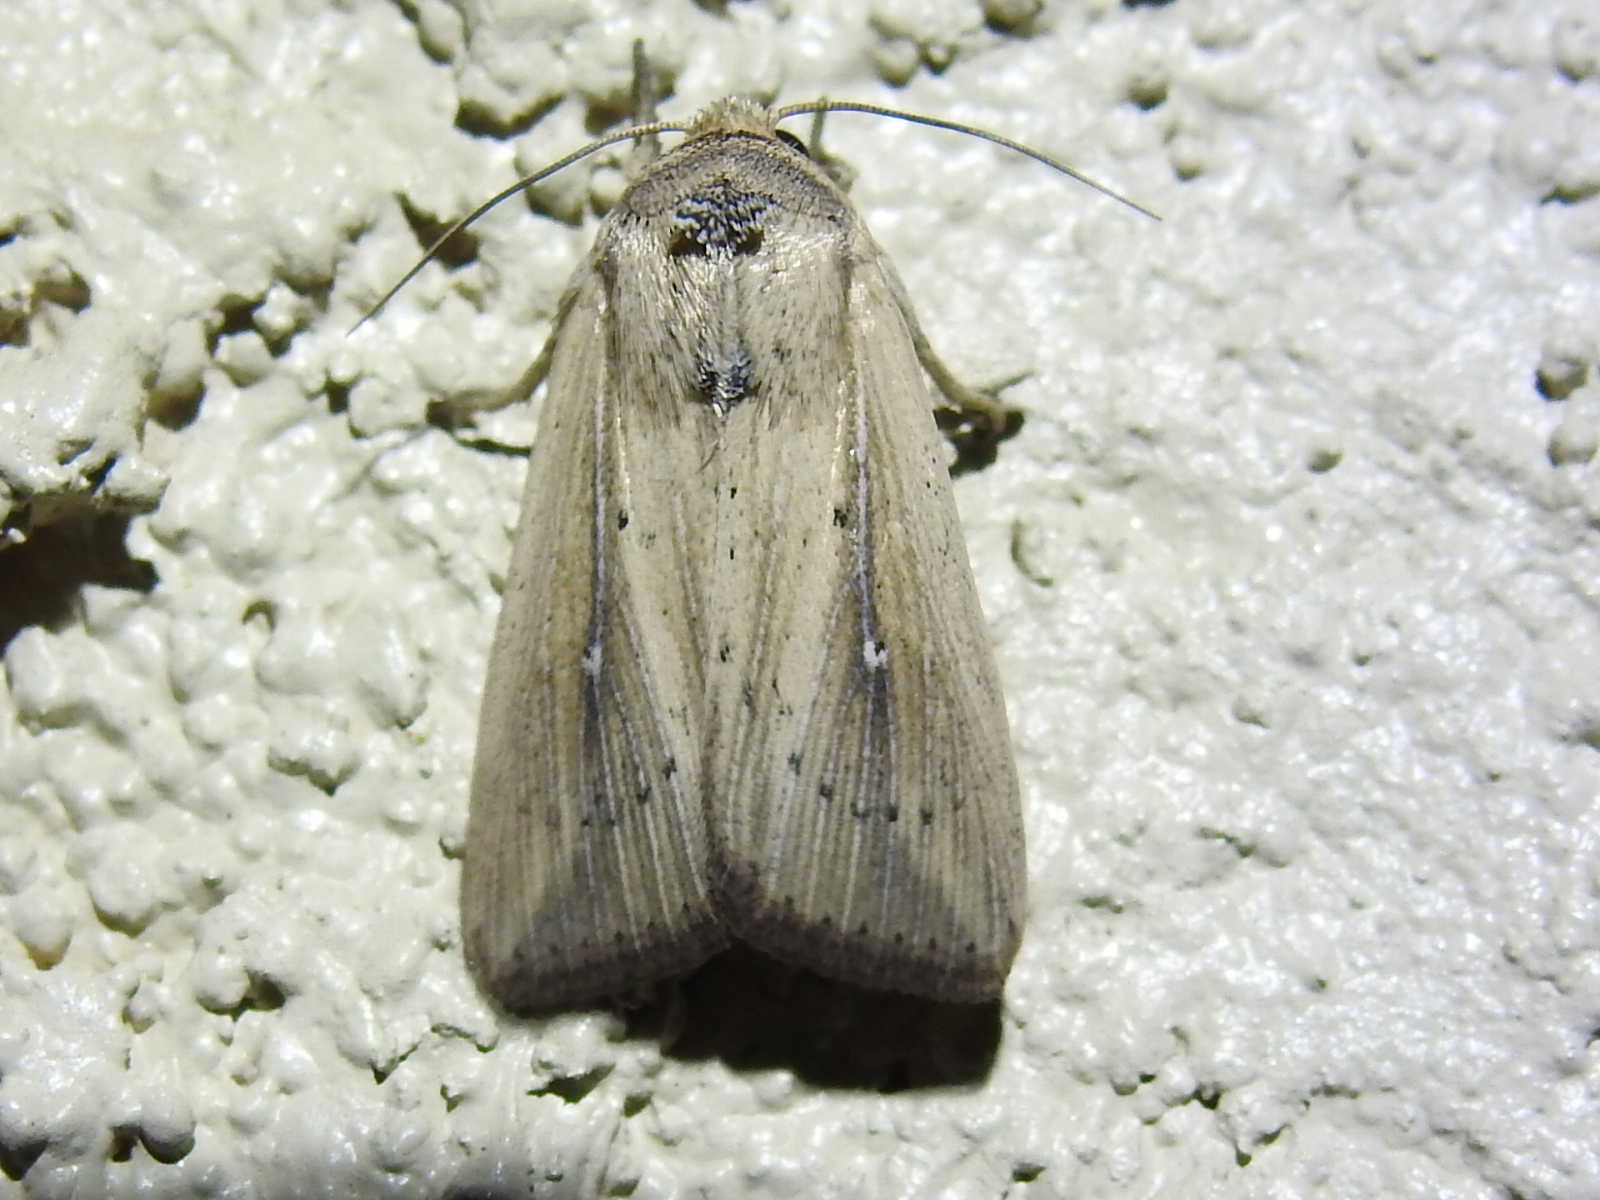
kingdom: Animalia
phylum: Arthropoda
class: Insecta
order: Lepidoptera
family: Noctuidae
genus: Leucania
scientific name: Leucania incognita
